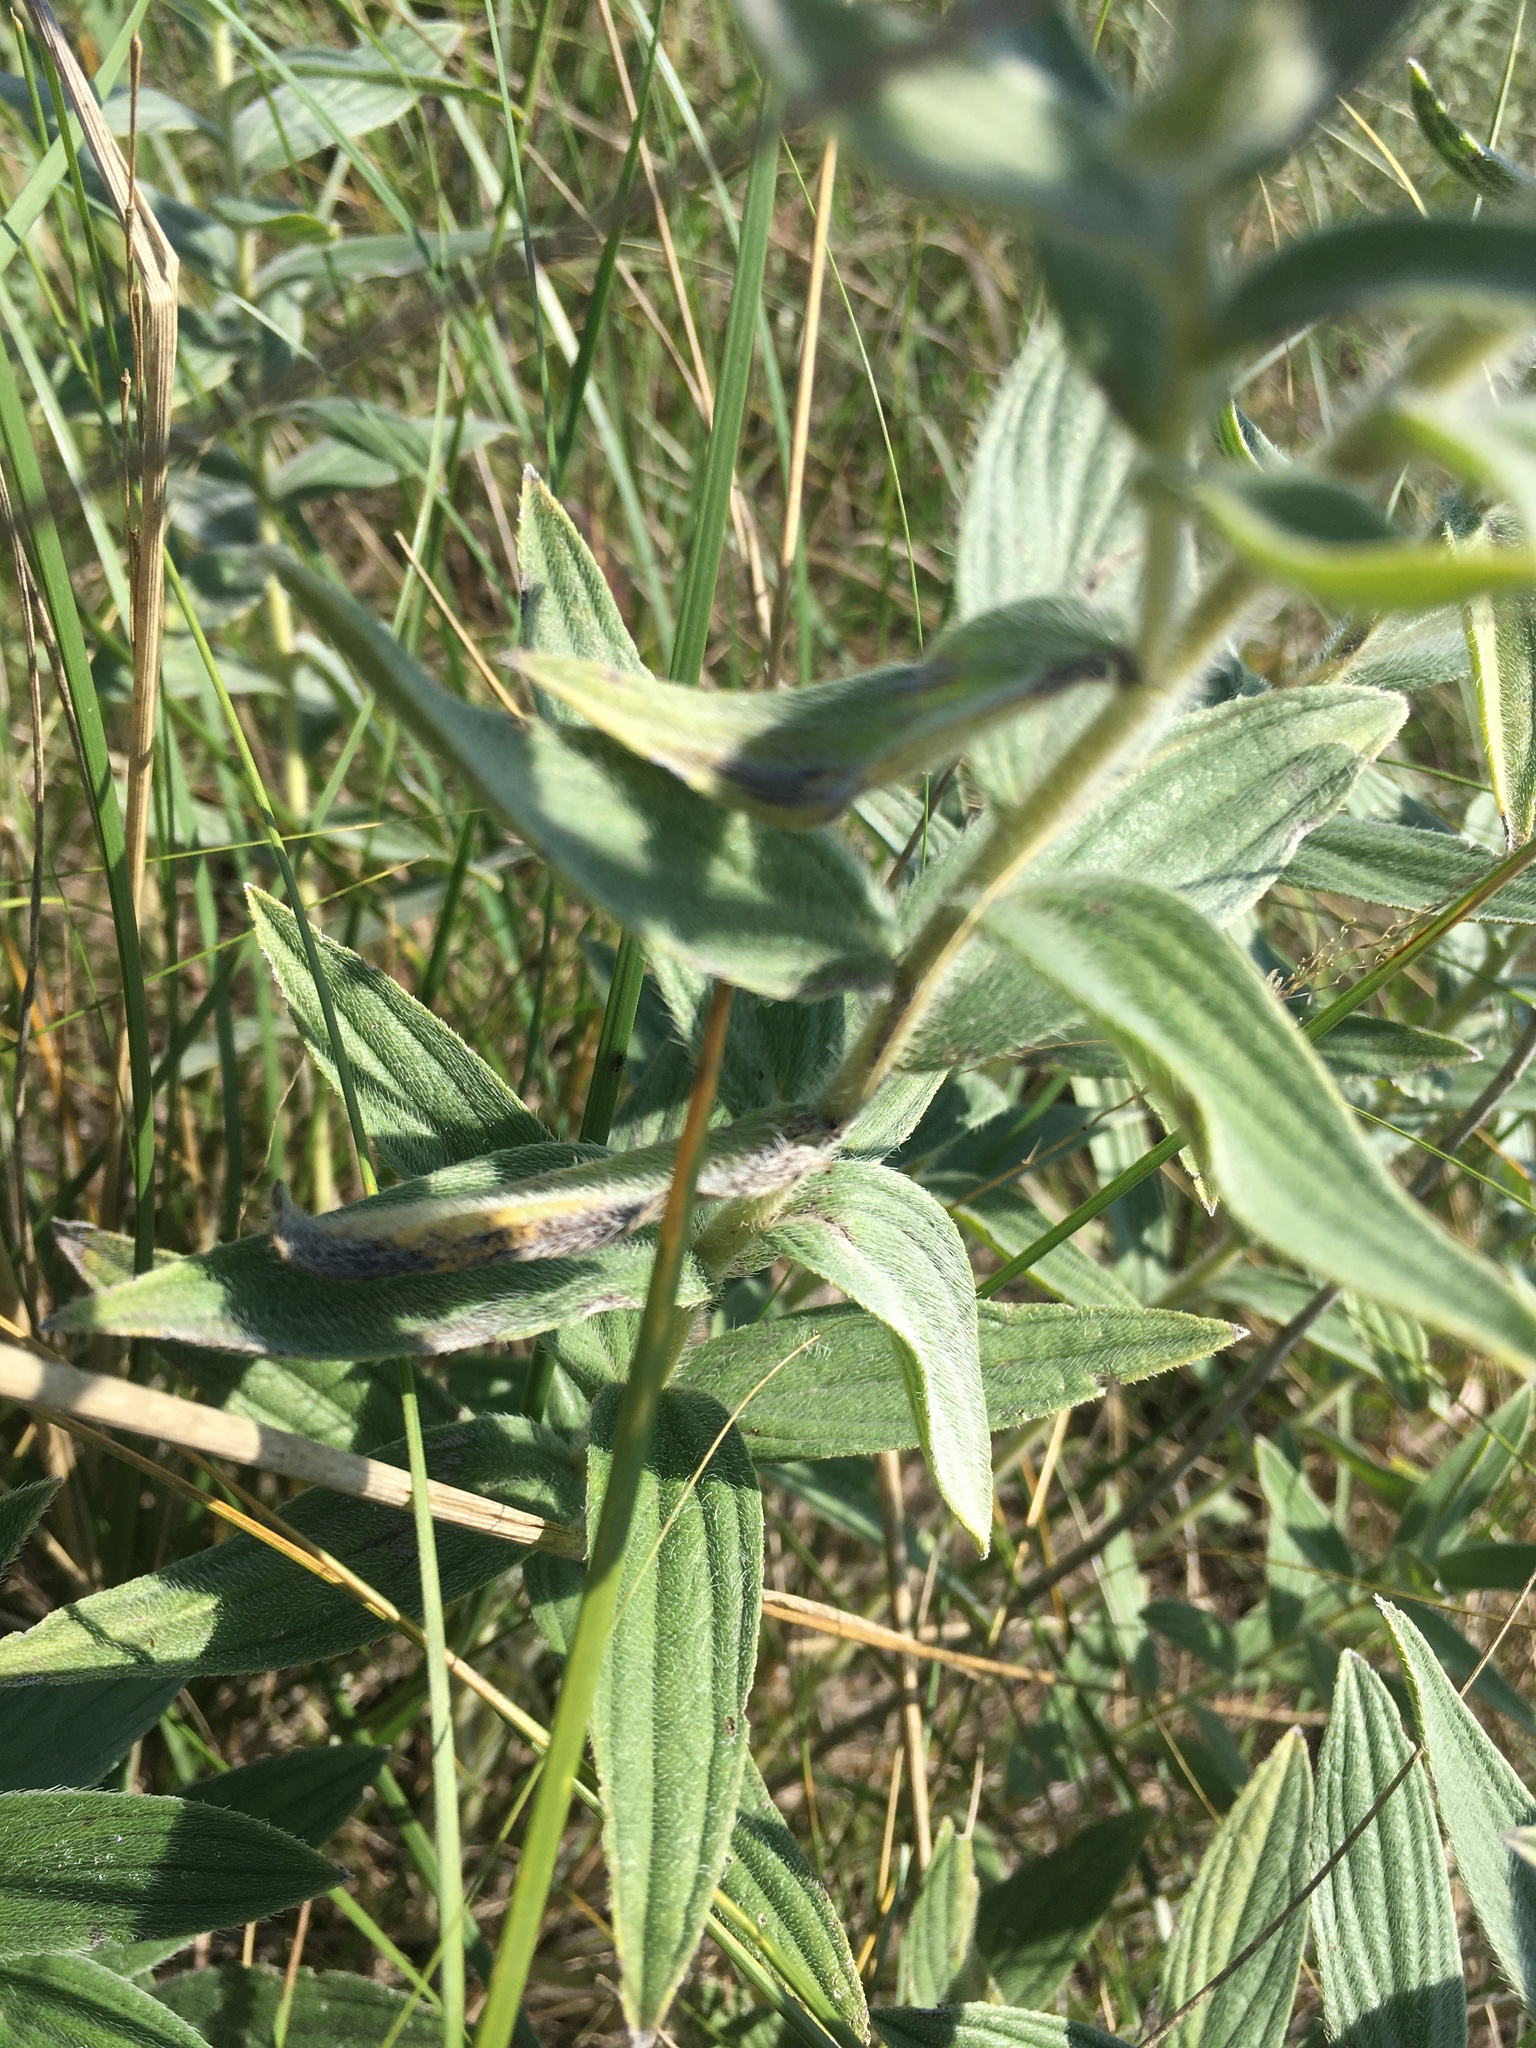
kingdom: Plantae
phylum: Tracheophyta
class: Magnoliopsida
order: Boraginales
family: Boraginaceae
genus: Lithospermum
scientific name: Lithospermum occidentale
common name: Western false gromwell
